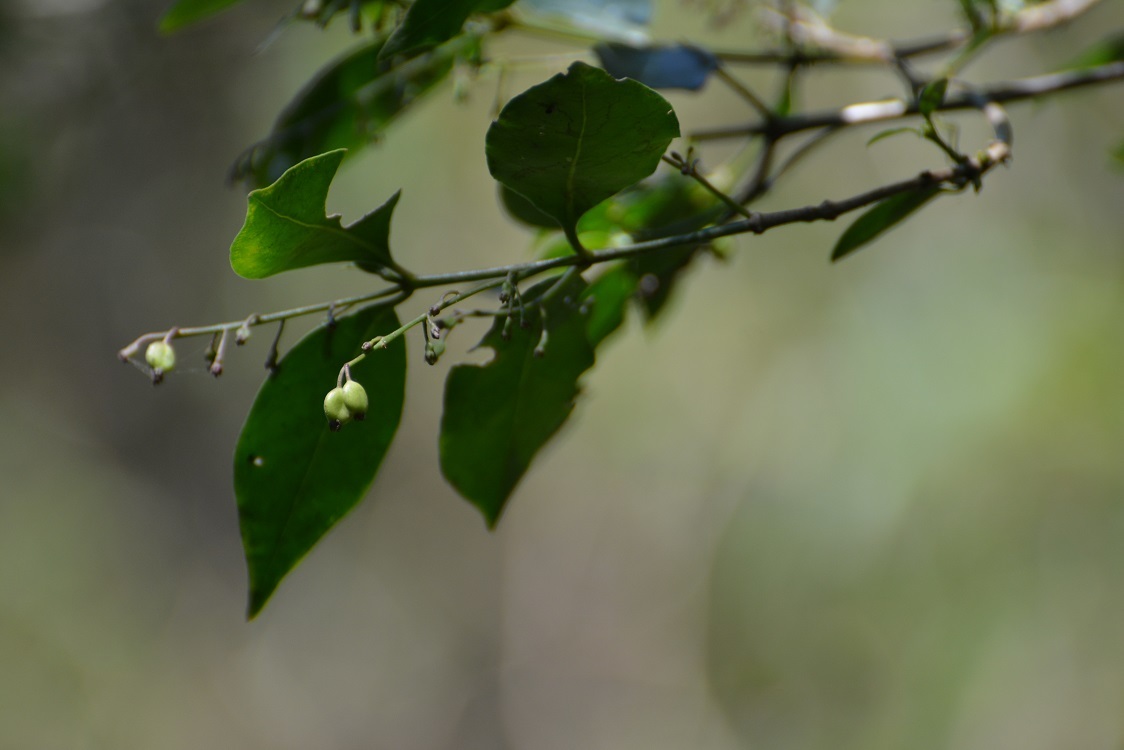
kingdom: Plantae
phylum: Tracheophyta
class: Magnoliopsida
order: Gentianales
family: Rubiaceae
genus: Chiococca
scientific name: Chiococca alba
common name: Snowberry
